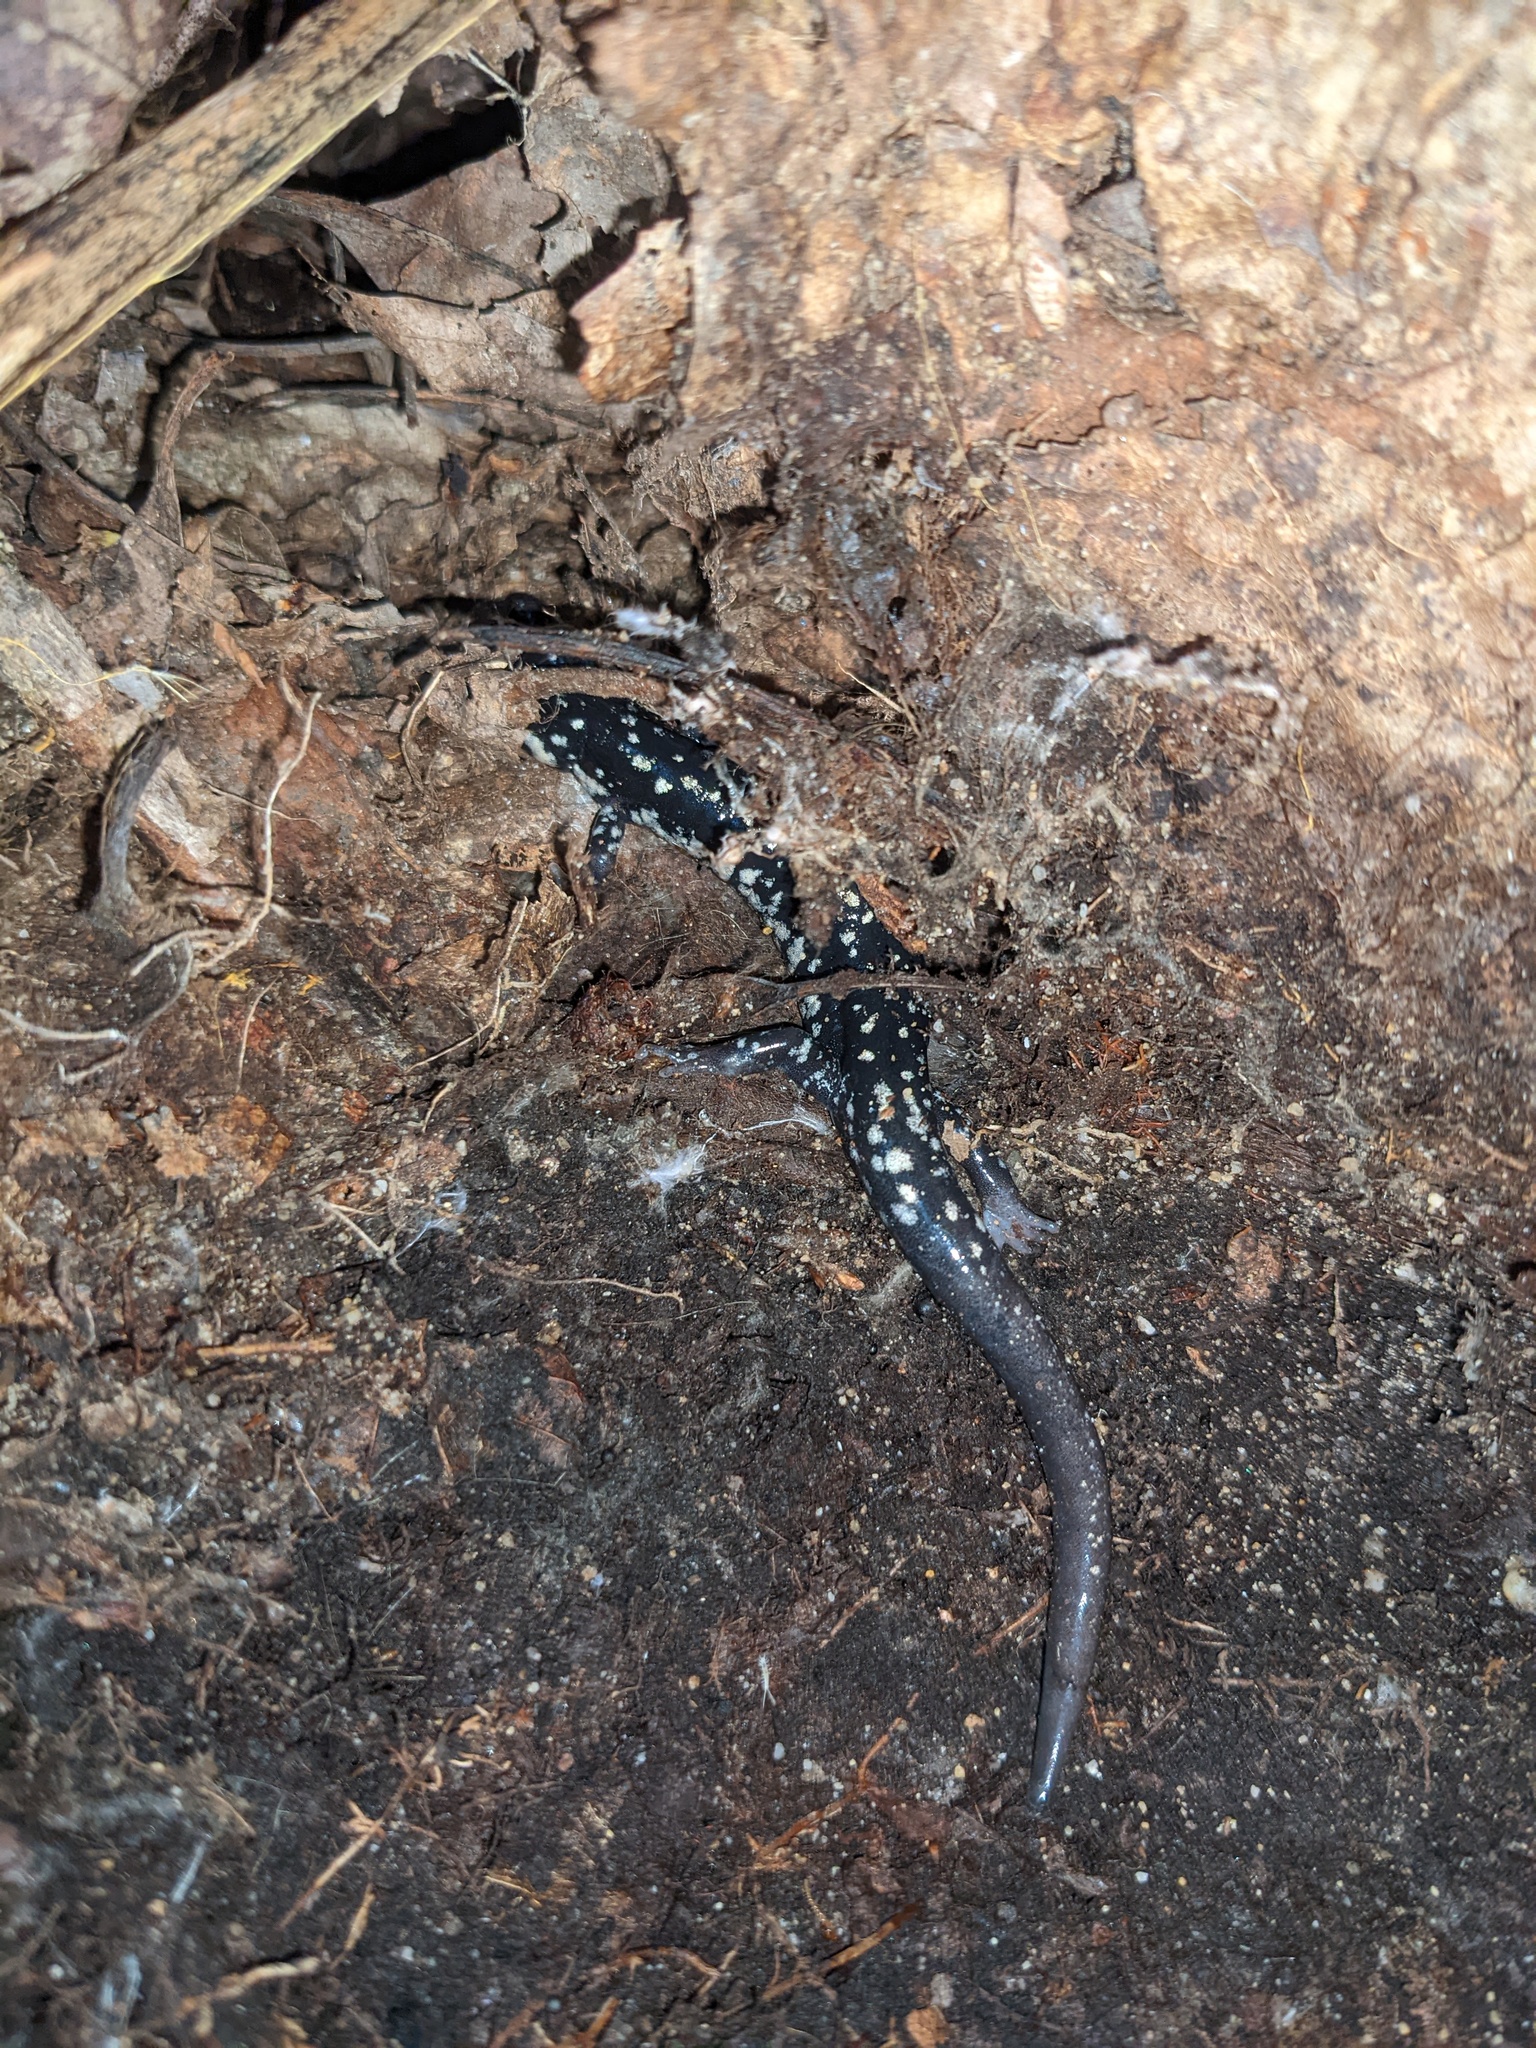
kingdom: Animalia
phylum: Chordata
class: Amphibia
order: Caudata
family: Plethodontidae
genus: Plethodon
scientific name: Plethodon glutinosus
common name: Northern slimy salamander
